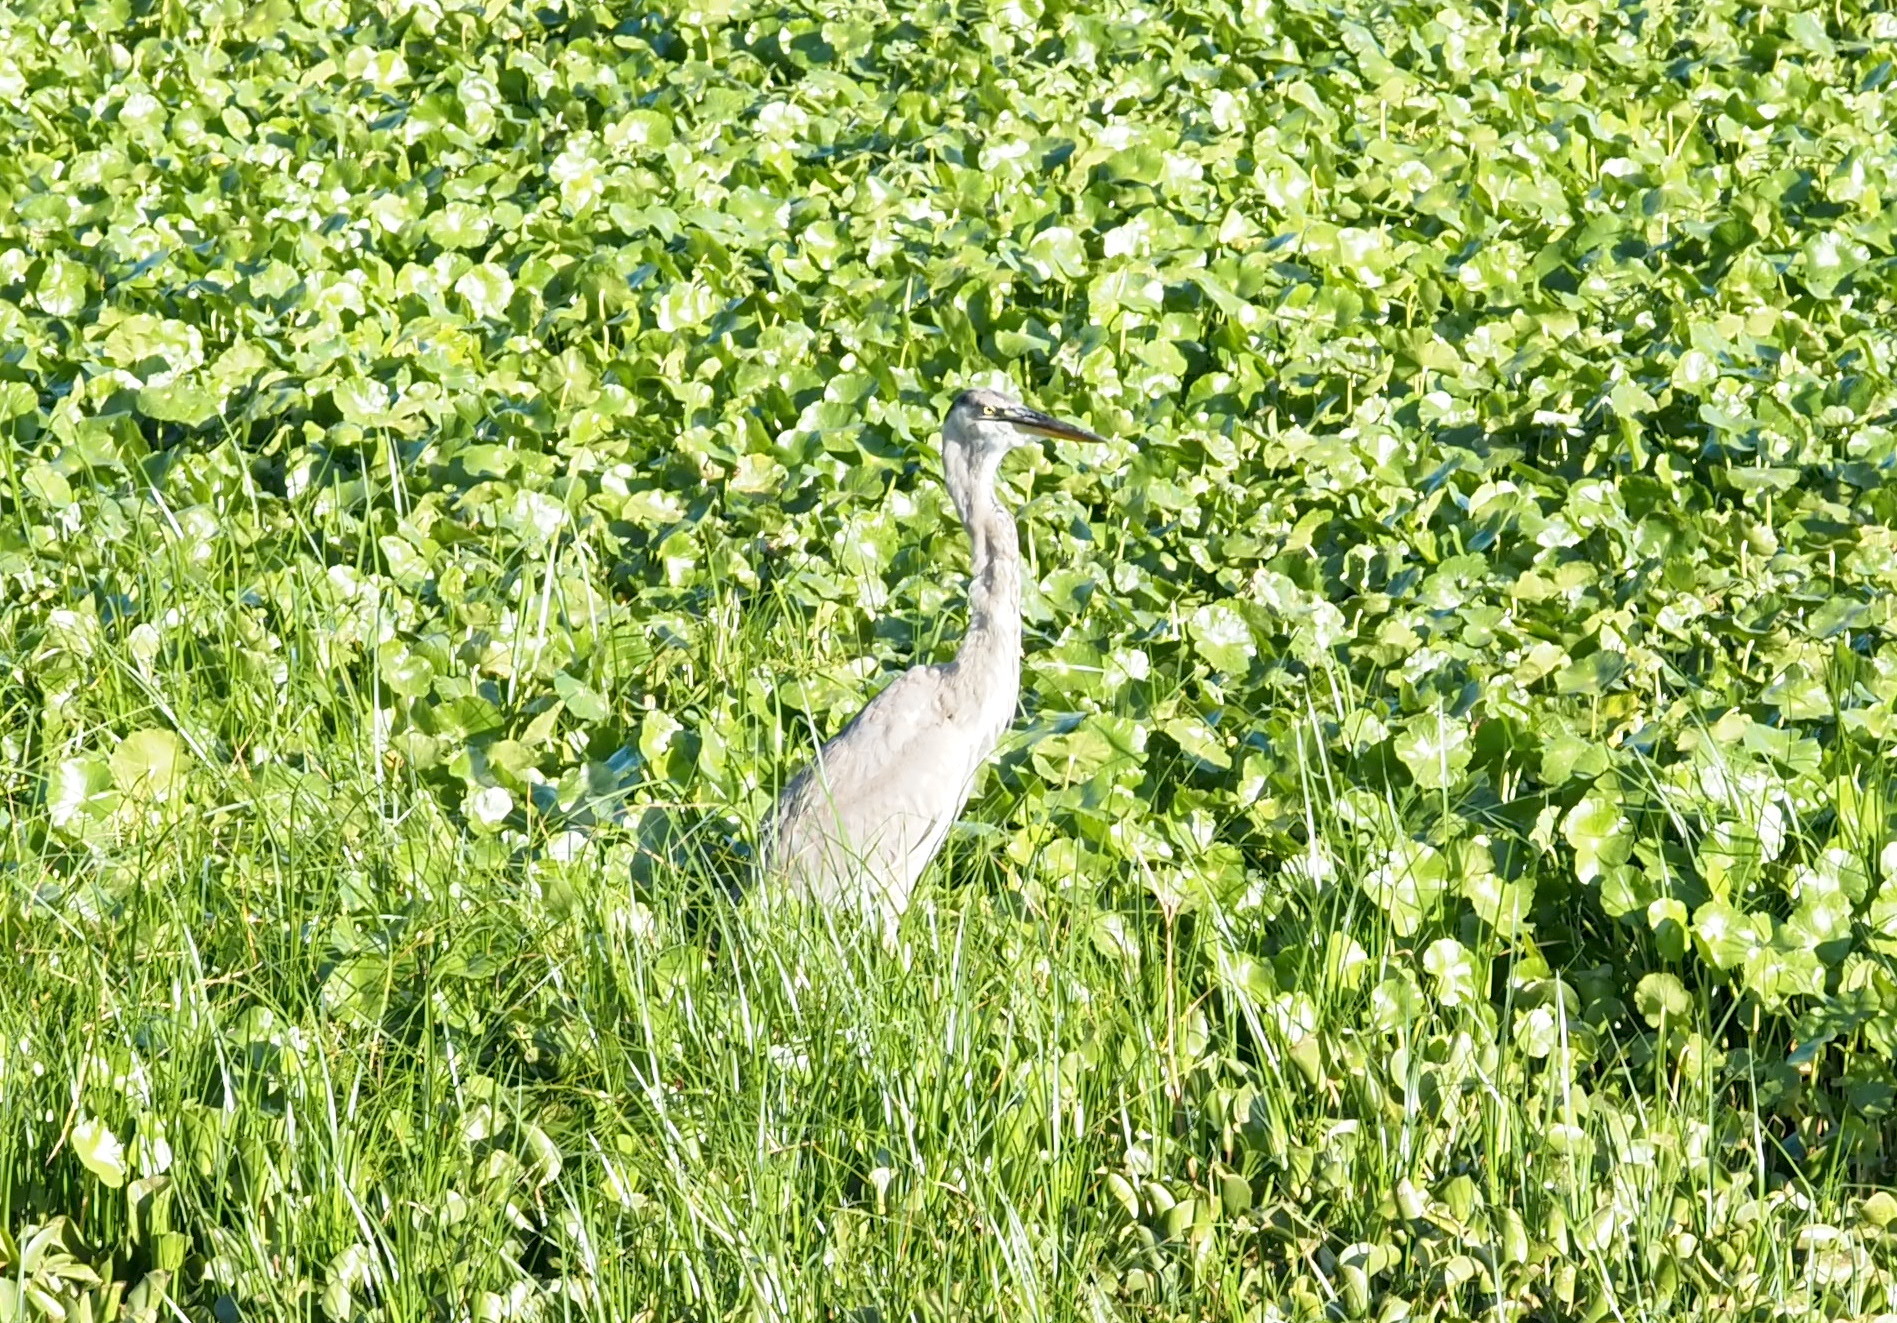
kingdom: Animalia
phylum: Chordata
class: Aves
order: Pelecaniformes
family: Ardeidae
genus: Ardea
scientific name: Ardea herodias
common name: Great blue heron
